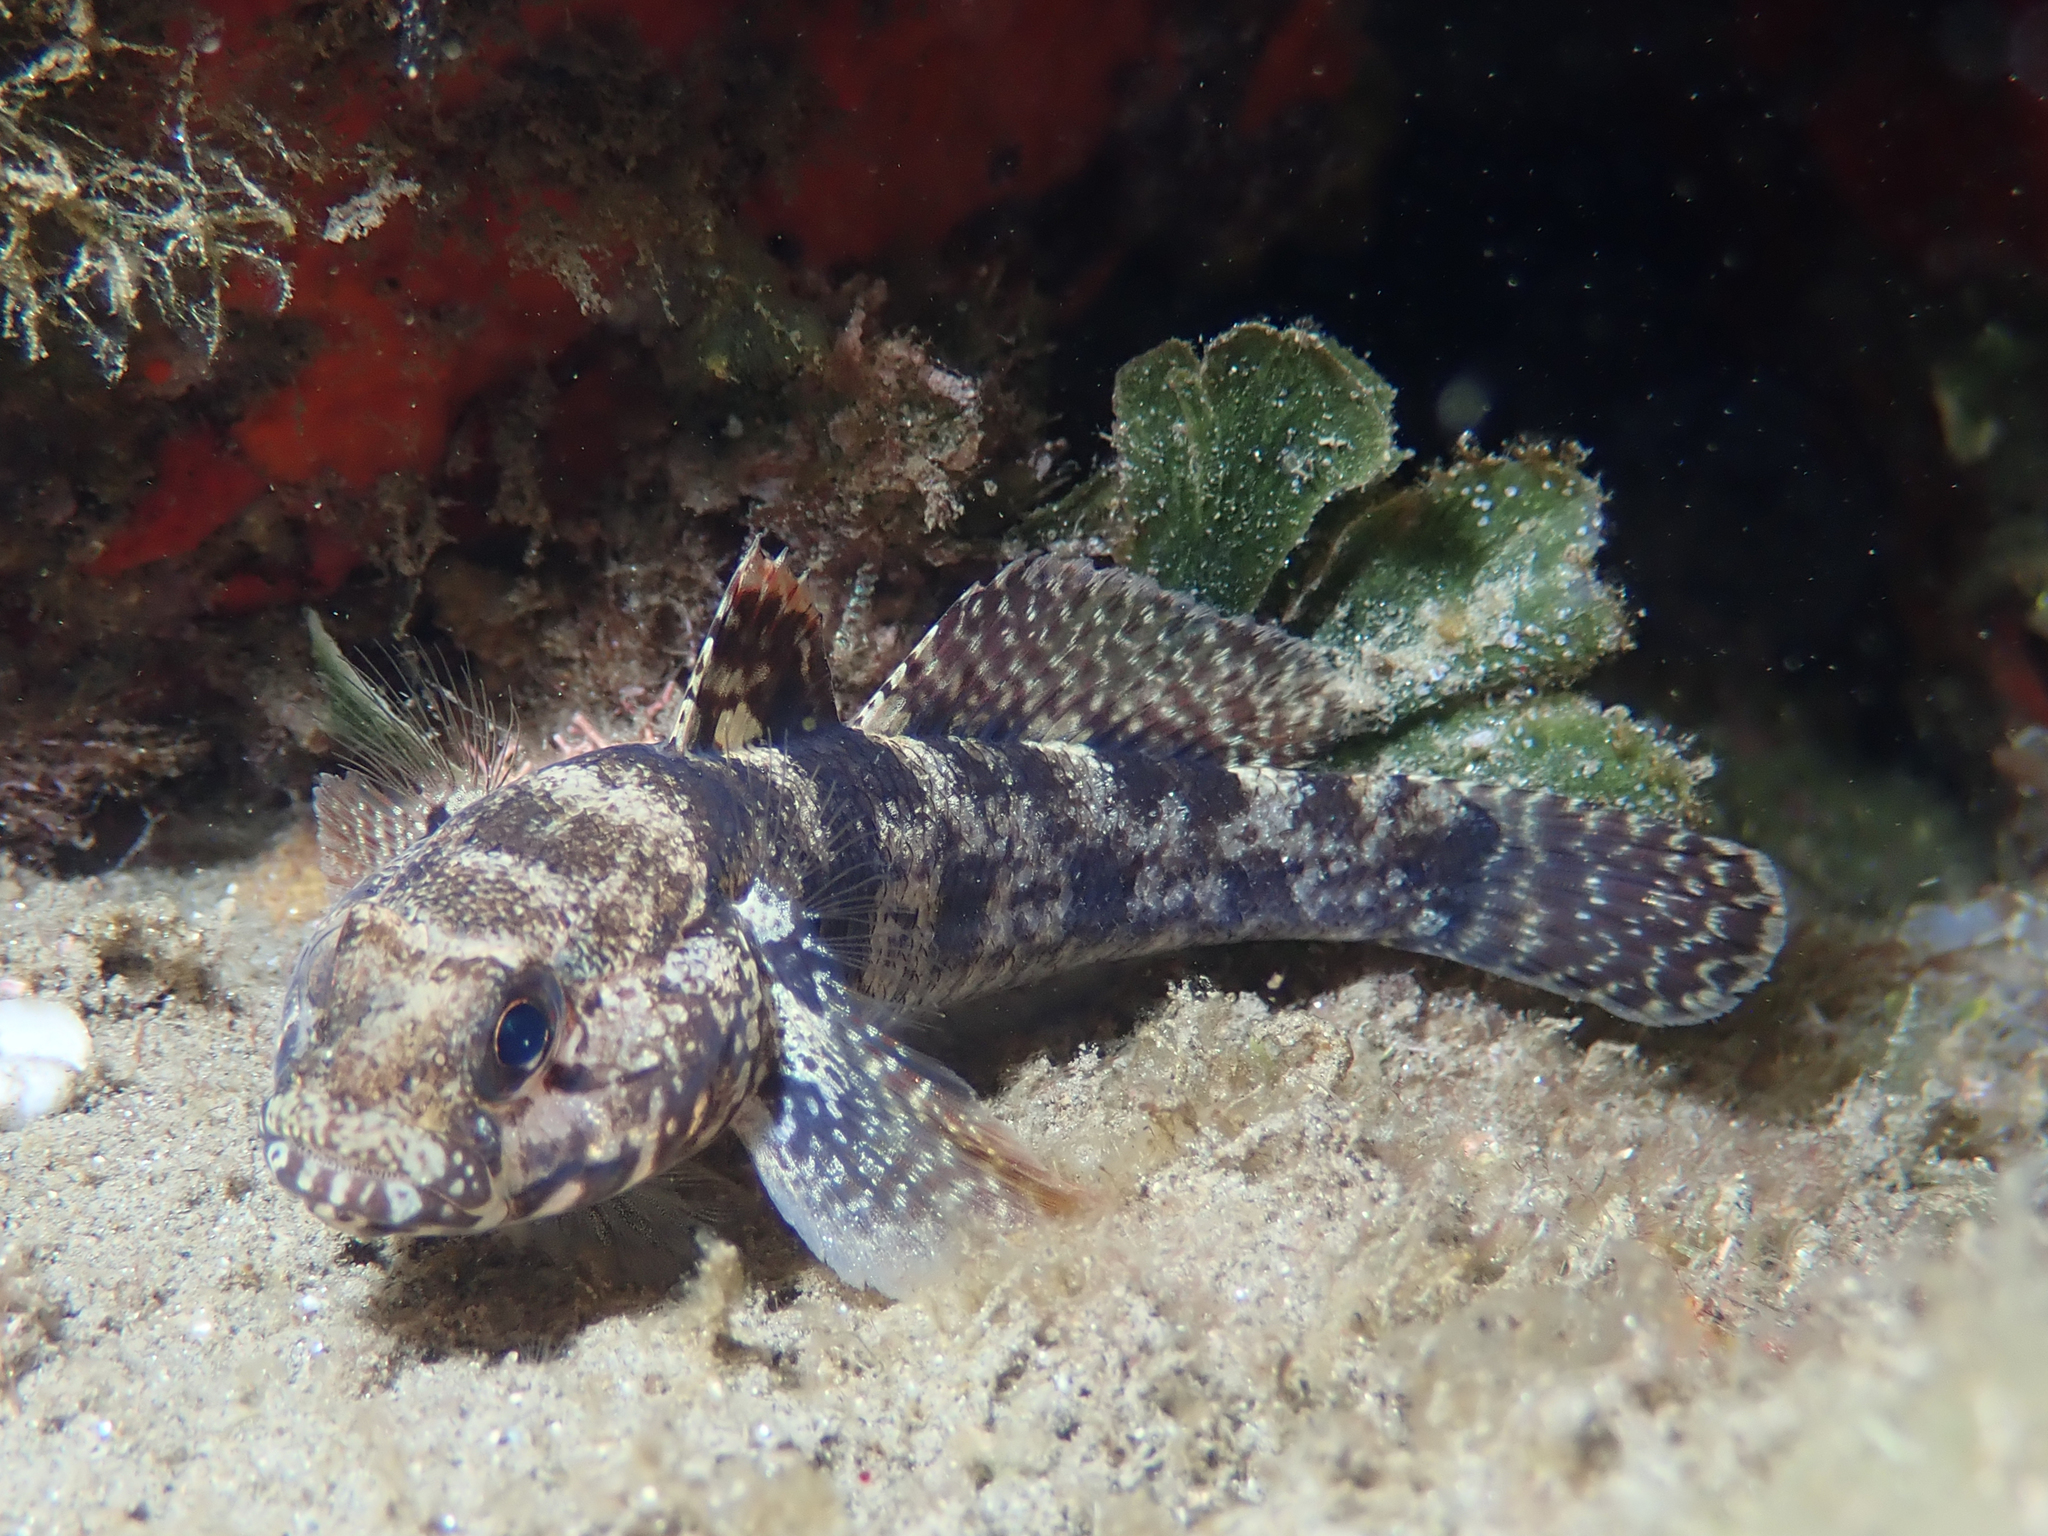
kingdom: Animalia
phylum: Chordata
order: Perciformes
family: Gobiidae
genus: Gobius
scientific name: Gobius paganellus
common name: Rock goby
